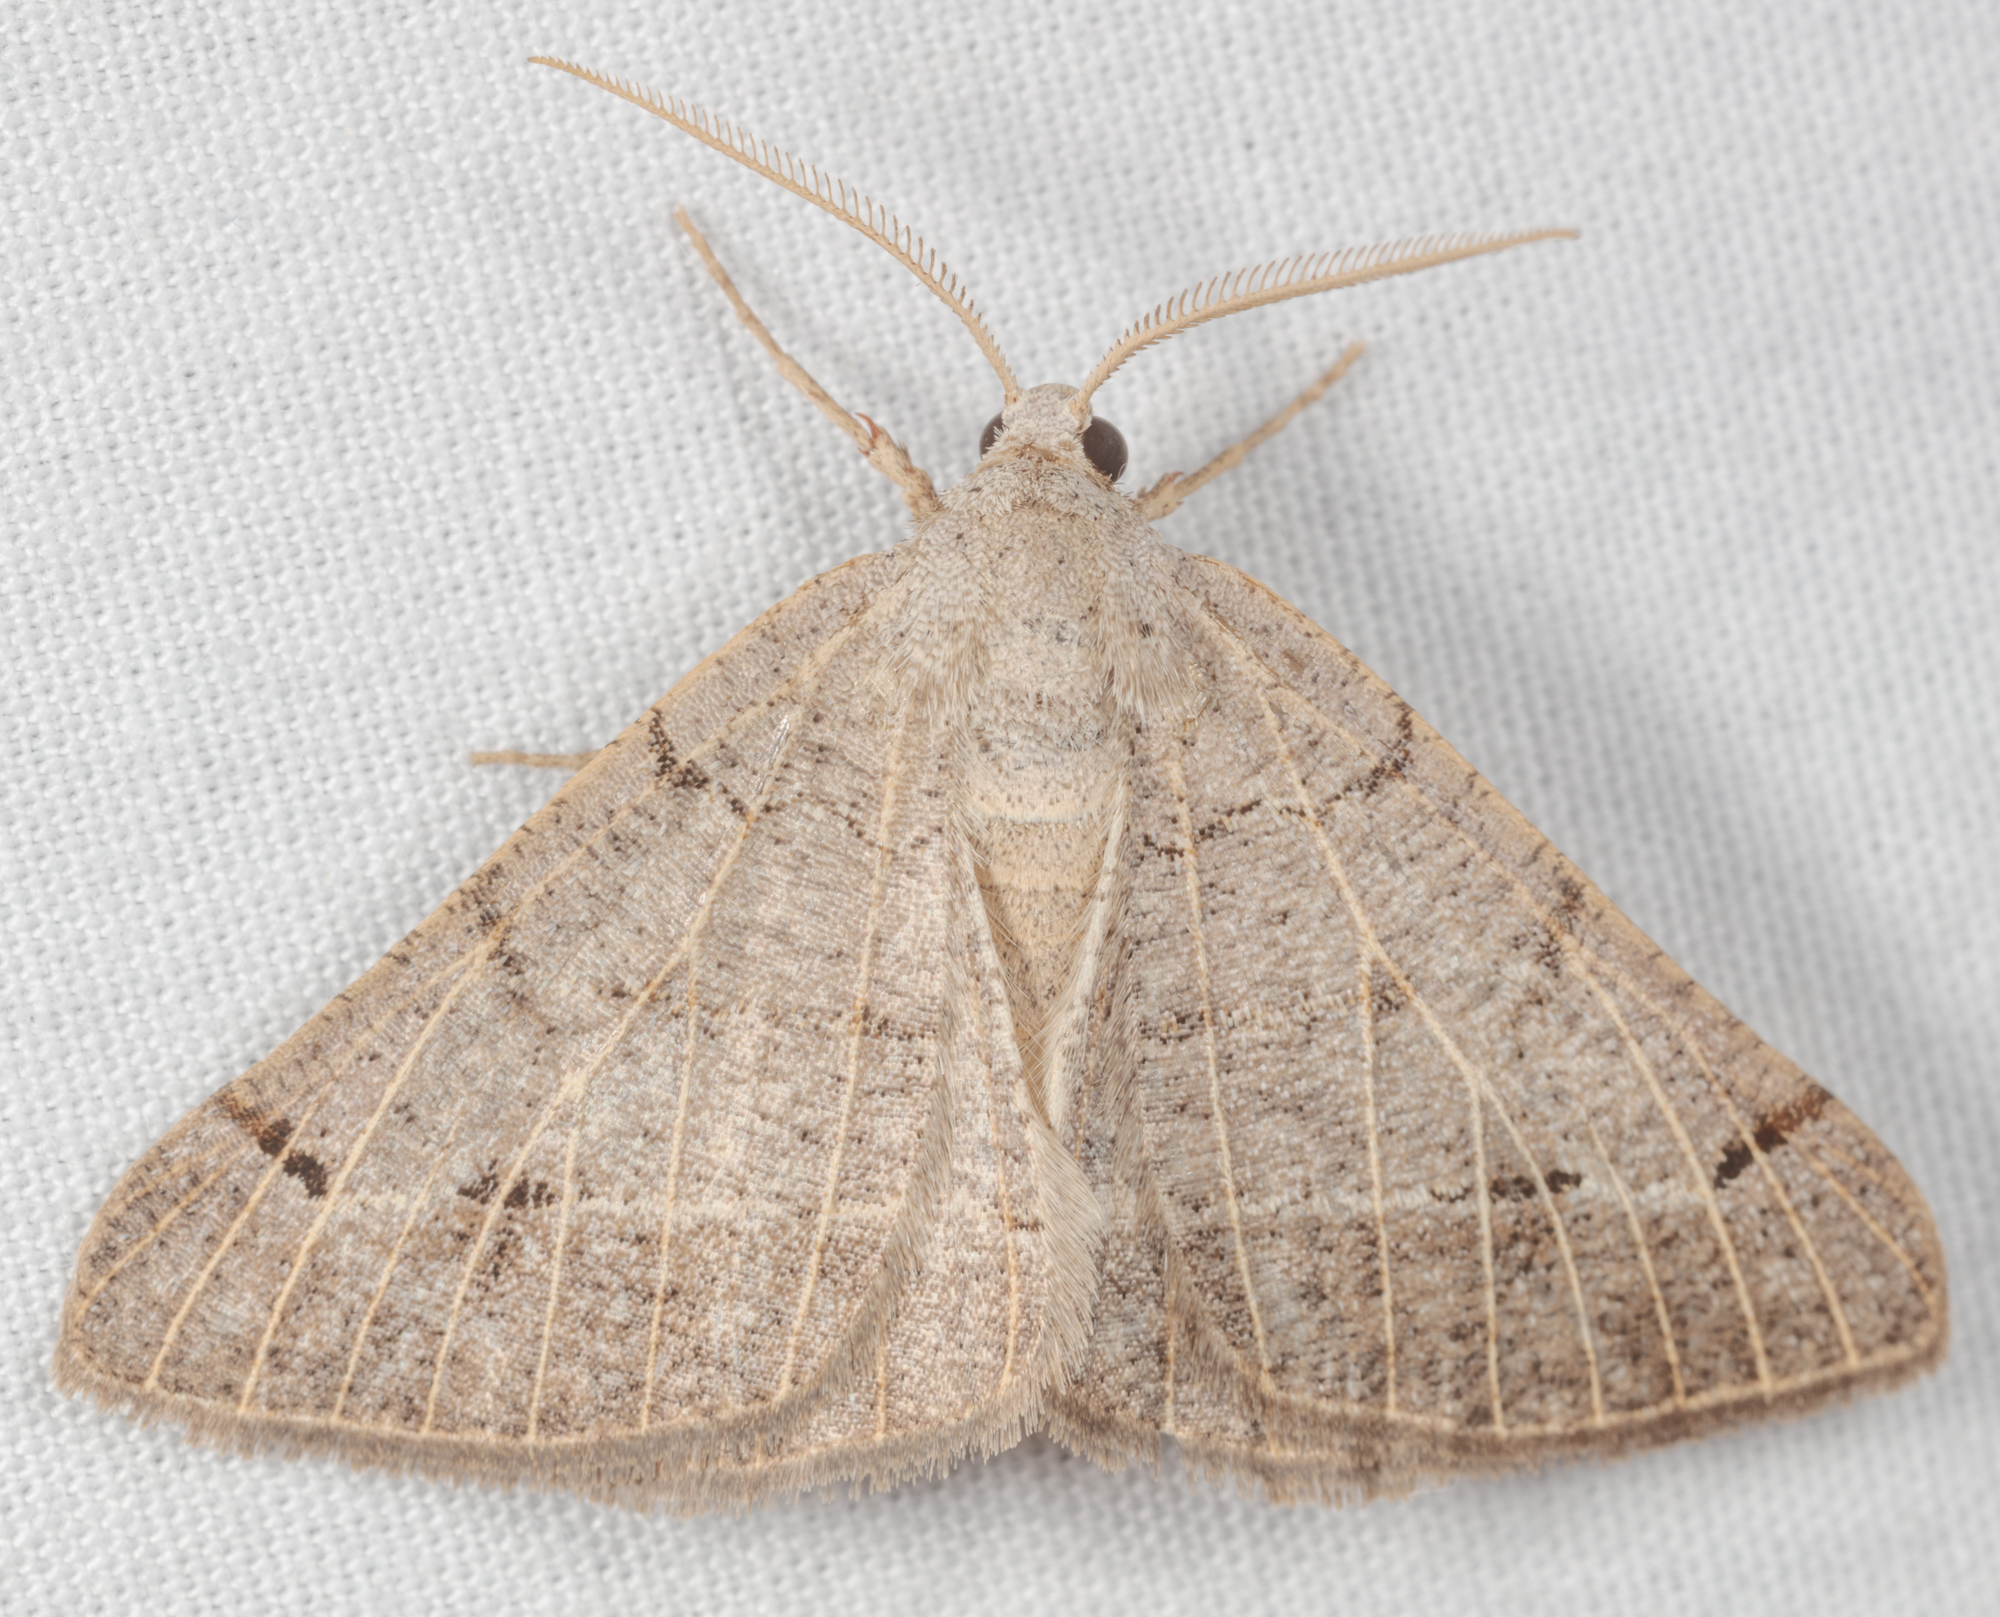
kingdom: Animalia
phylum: Arthropoda
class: Insecta
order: Lepidoptera
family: Geometridae
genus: Isturgia
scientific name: Isturgia dislocaria
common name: Pale-viened enconista
